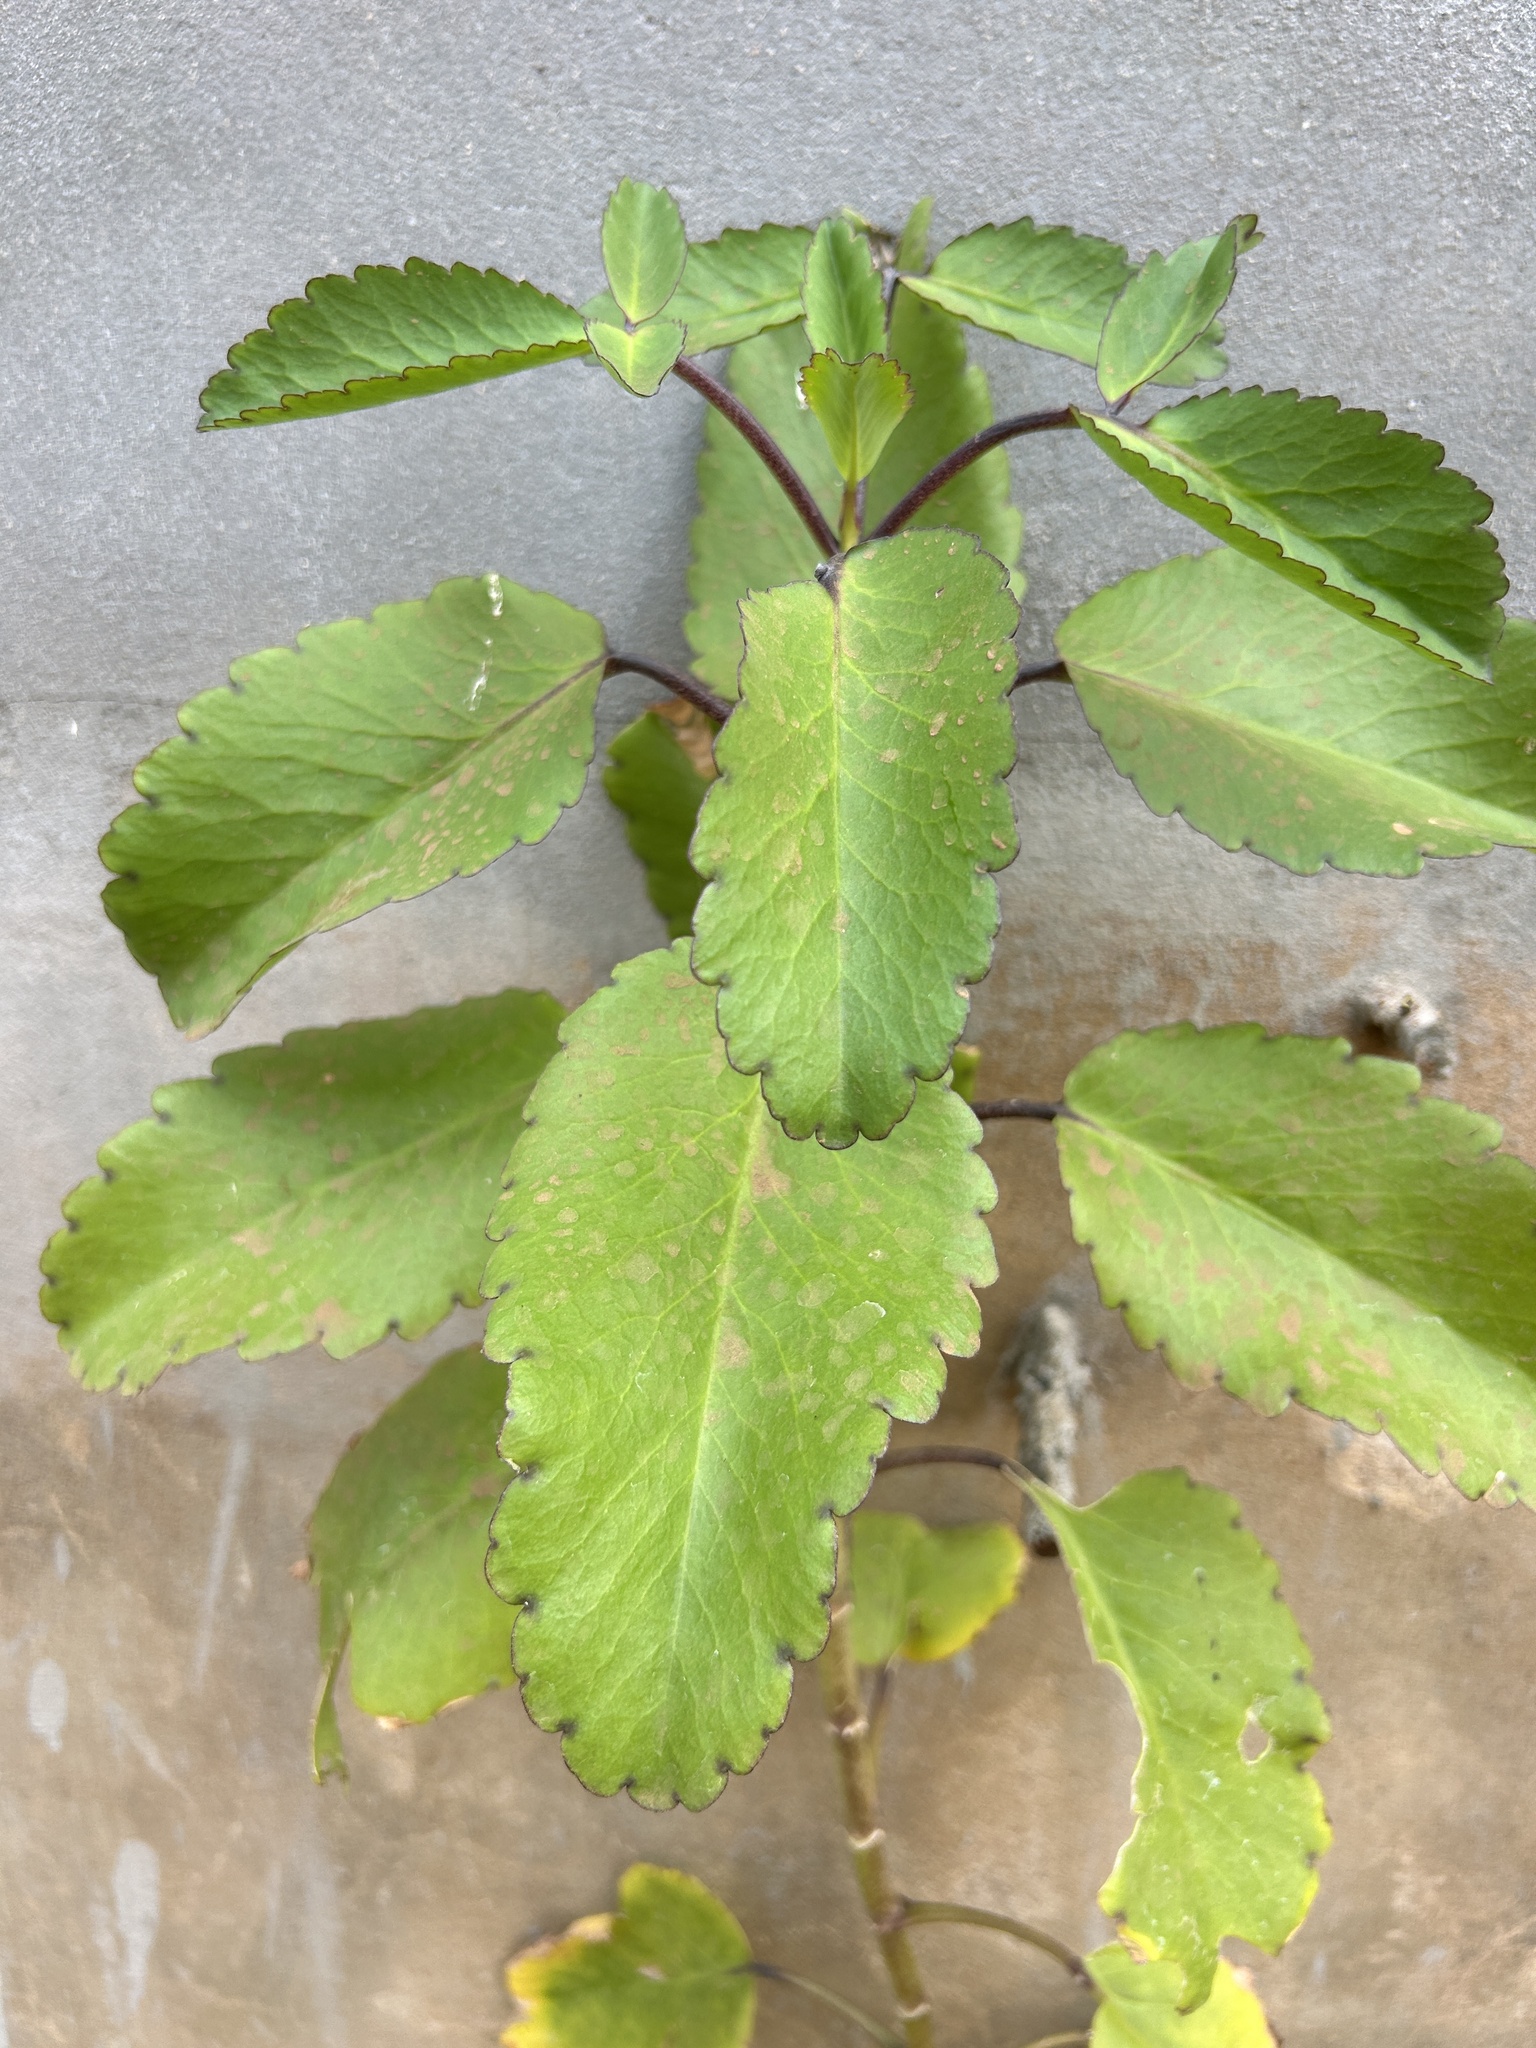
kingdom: Plantae
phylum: Tracheophyta
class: Magnoliopsida
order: Saxifragales
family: Crassulaceae
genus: Kalanchoe
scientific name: Kalanchoe pinnata
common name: Cathedral bells
